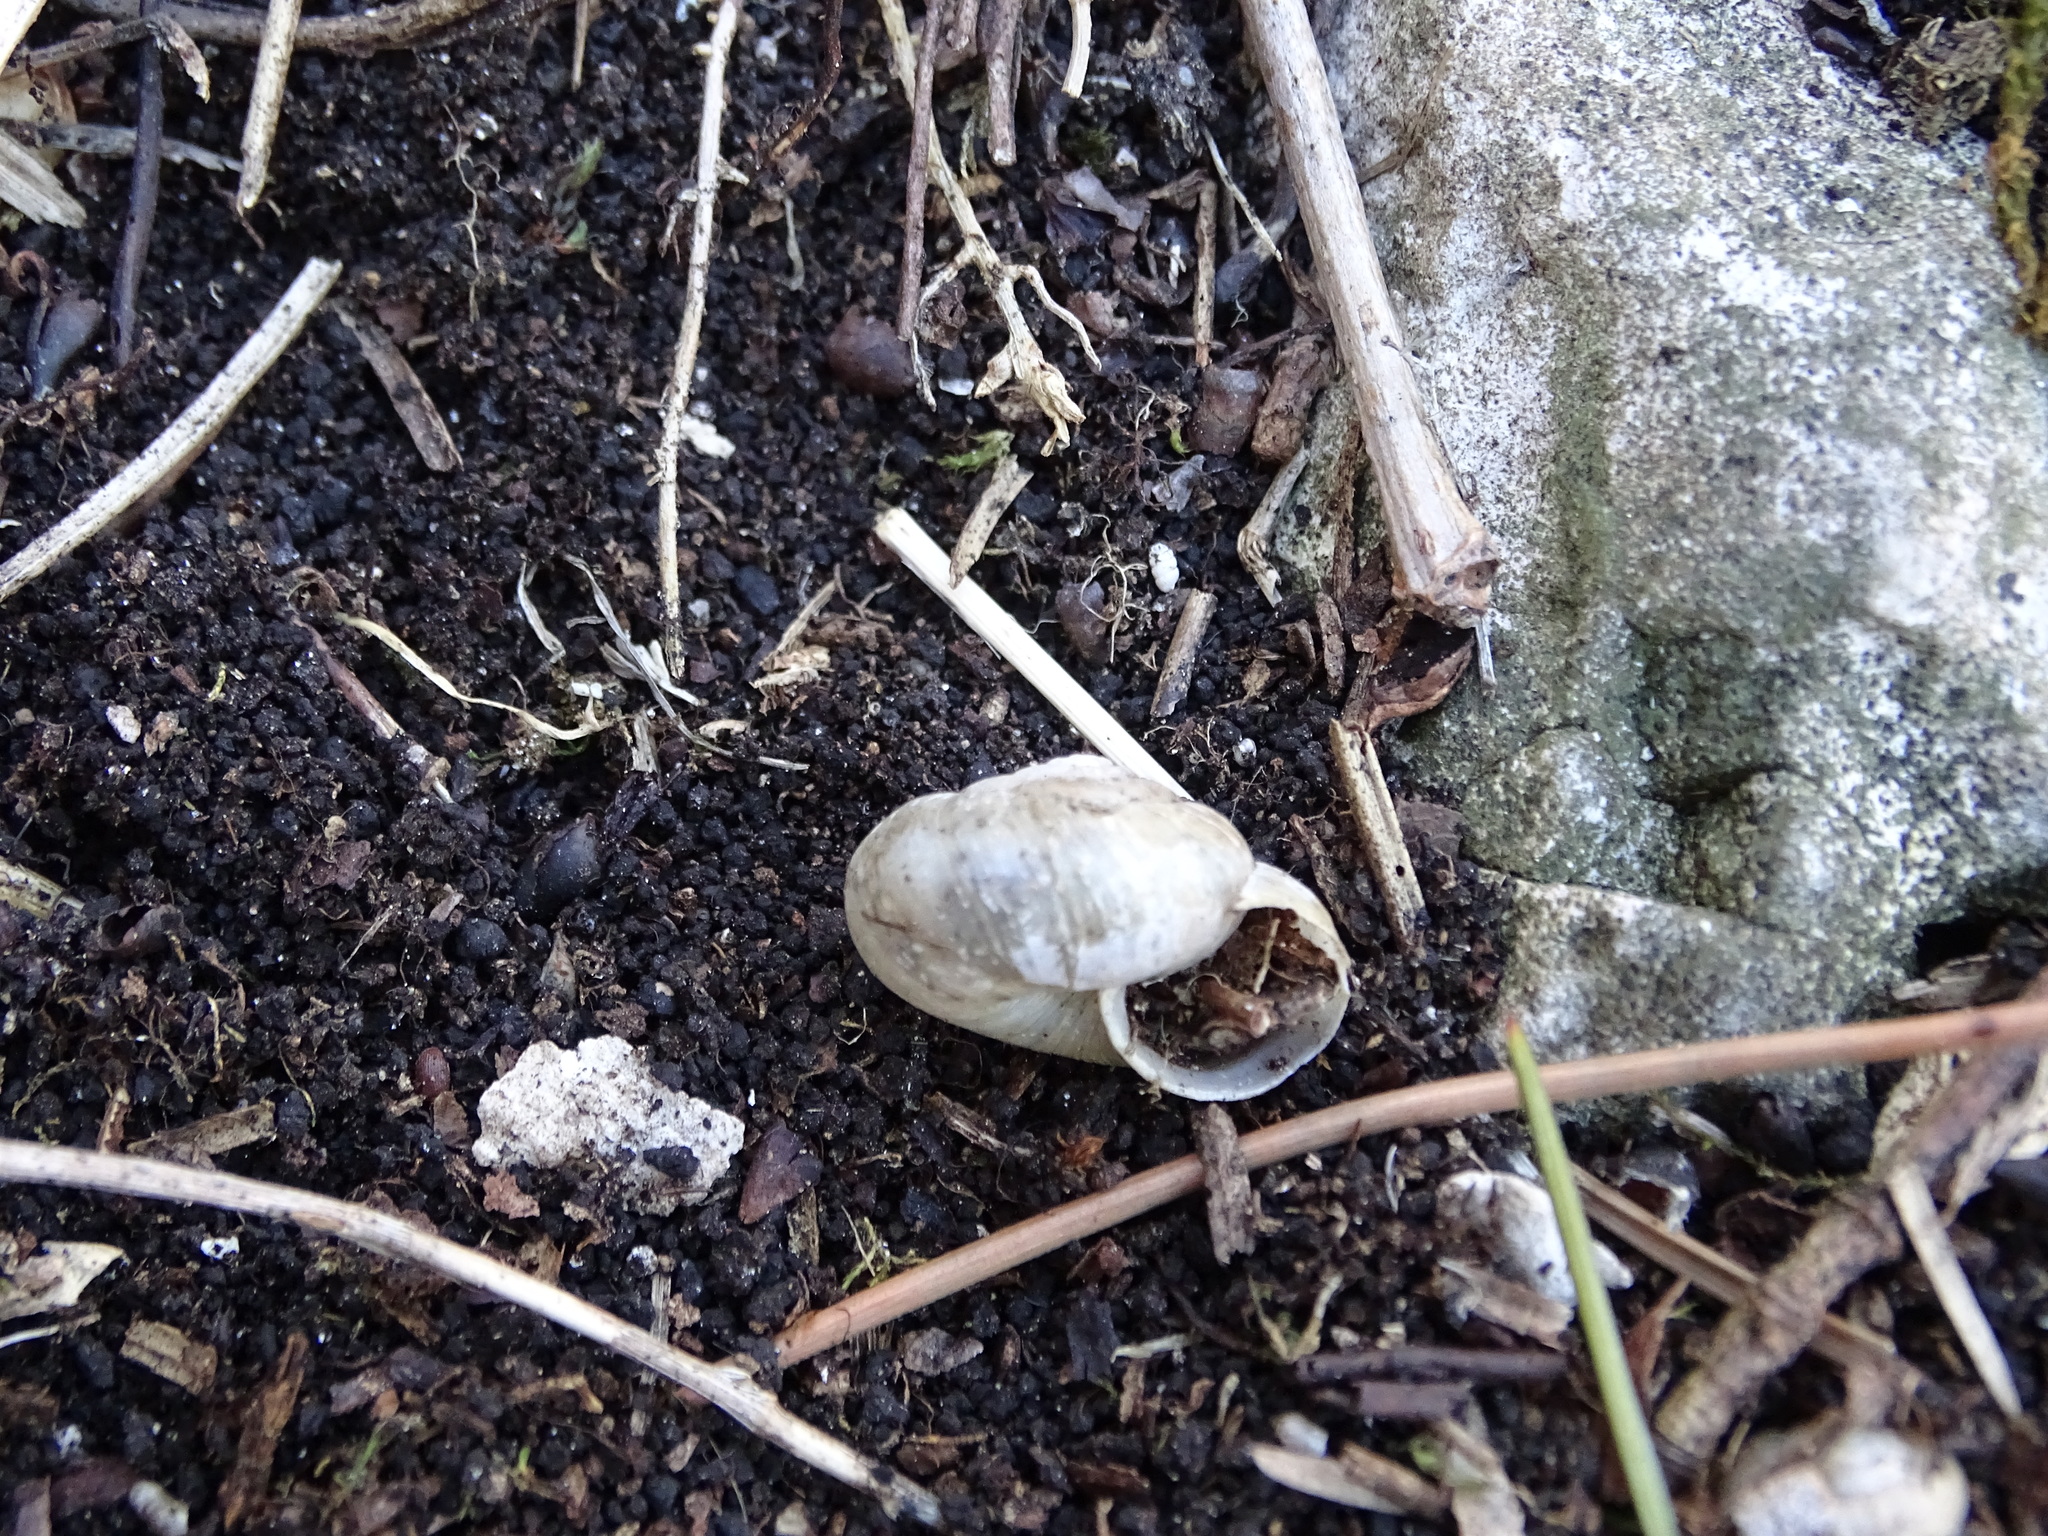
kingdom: Animalia
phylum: Mollusca
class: Gastropoda
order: Stylommatophora
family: Hygromiidae
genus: Euomphalia
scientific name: Euomphalia strigella
